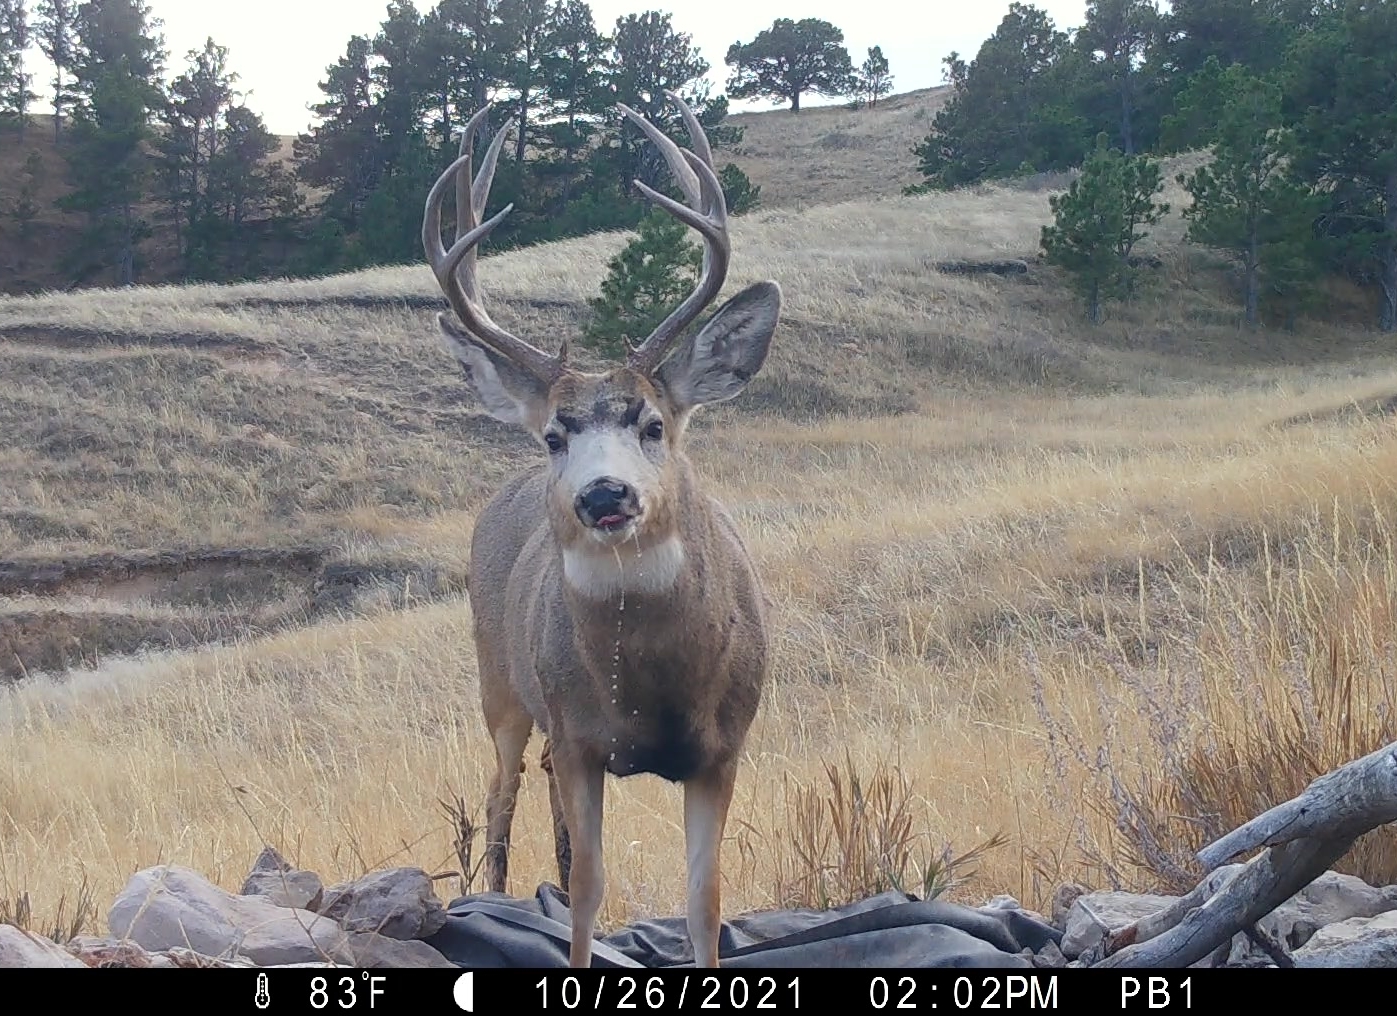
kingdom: Animalia
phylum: Chordata
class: Mammalia
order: Artiodactyla
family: Cervidae
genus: Odocoileus
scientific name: Odocoileus hemionus
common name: Mule deer
